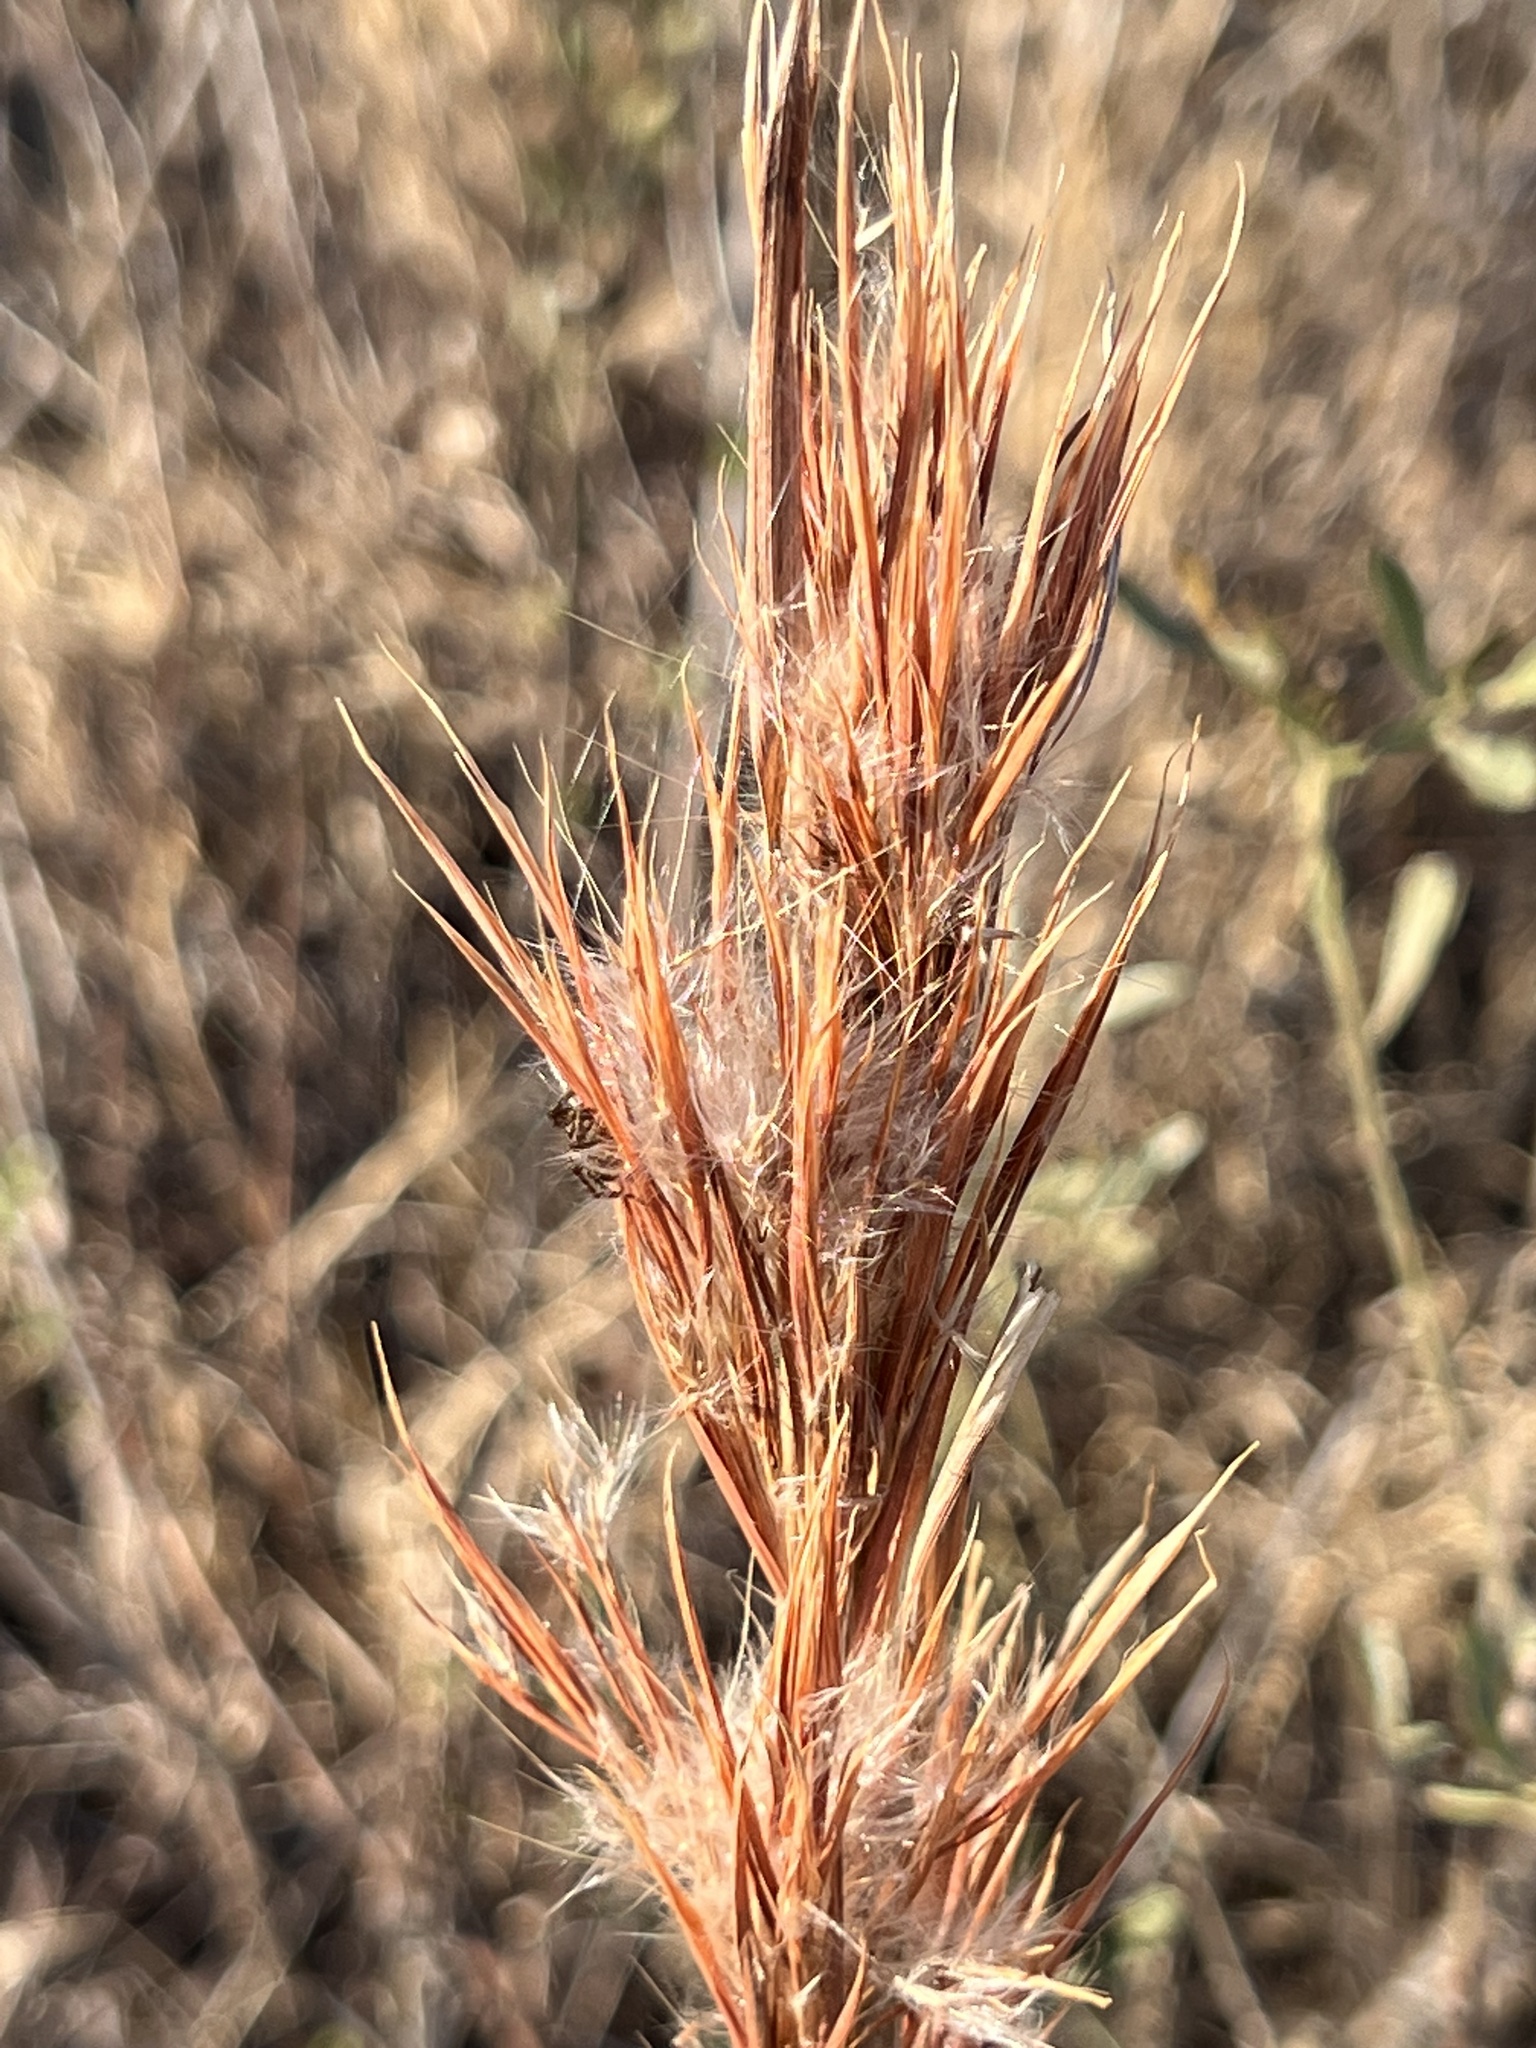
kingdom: Plantae
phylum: Tracheophyta
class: Liliopsida
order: Poales
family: Poaceae
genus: Andropogon
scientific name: Andropogon tenuispatheus
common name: Bushy bluestem
